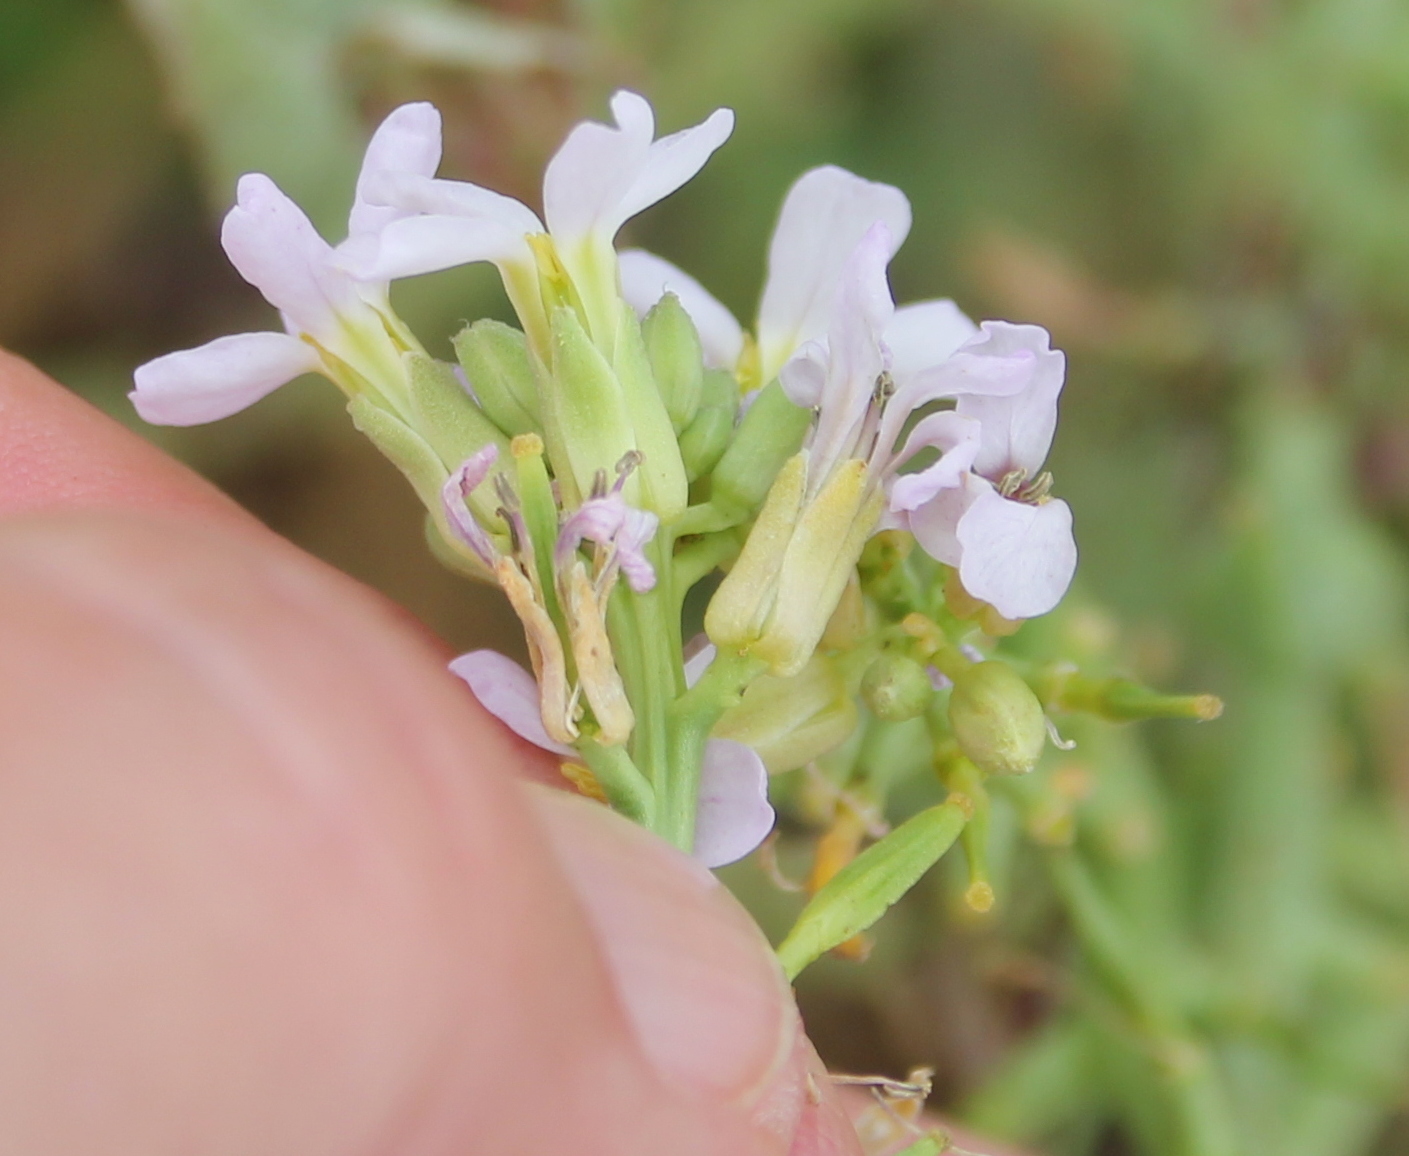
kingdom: Plantae
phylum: Tracheophyta
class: Magnoliopsida
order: Brassicales
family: Brassicaceae
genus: Cakile
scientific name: Cakile maritima
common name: Sea rocket
